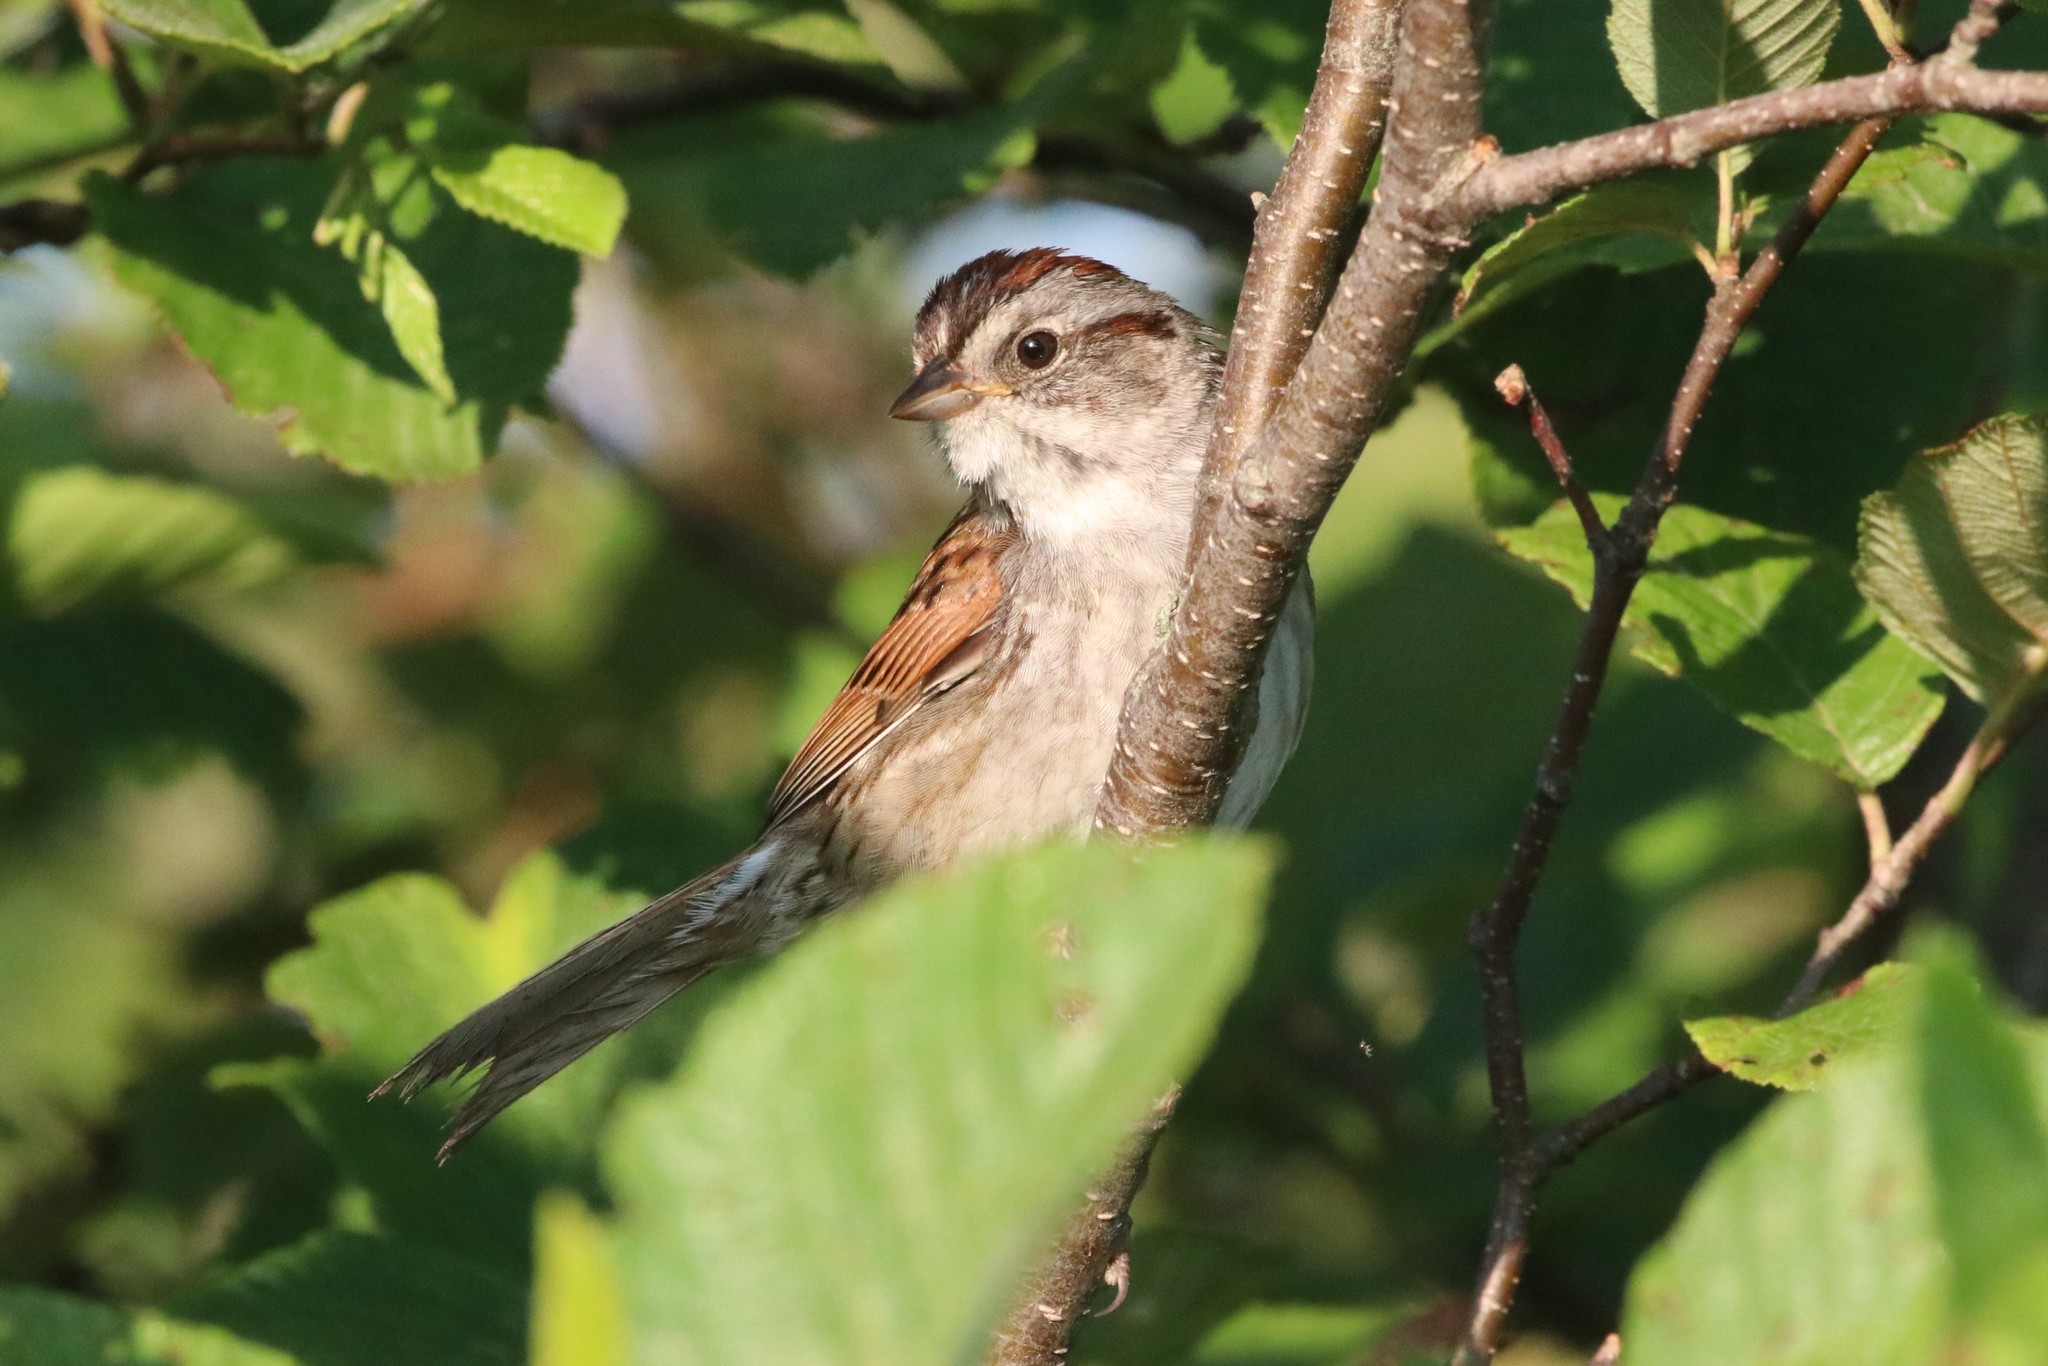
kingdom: Animalia
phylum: Chordata
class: Aves
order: Passeriformes
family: Passerellidae
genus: Melospiza
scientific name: Melospiza georgiana
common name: Swamp sparrow
